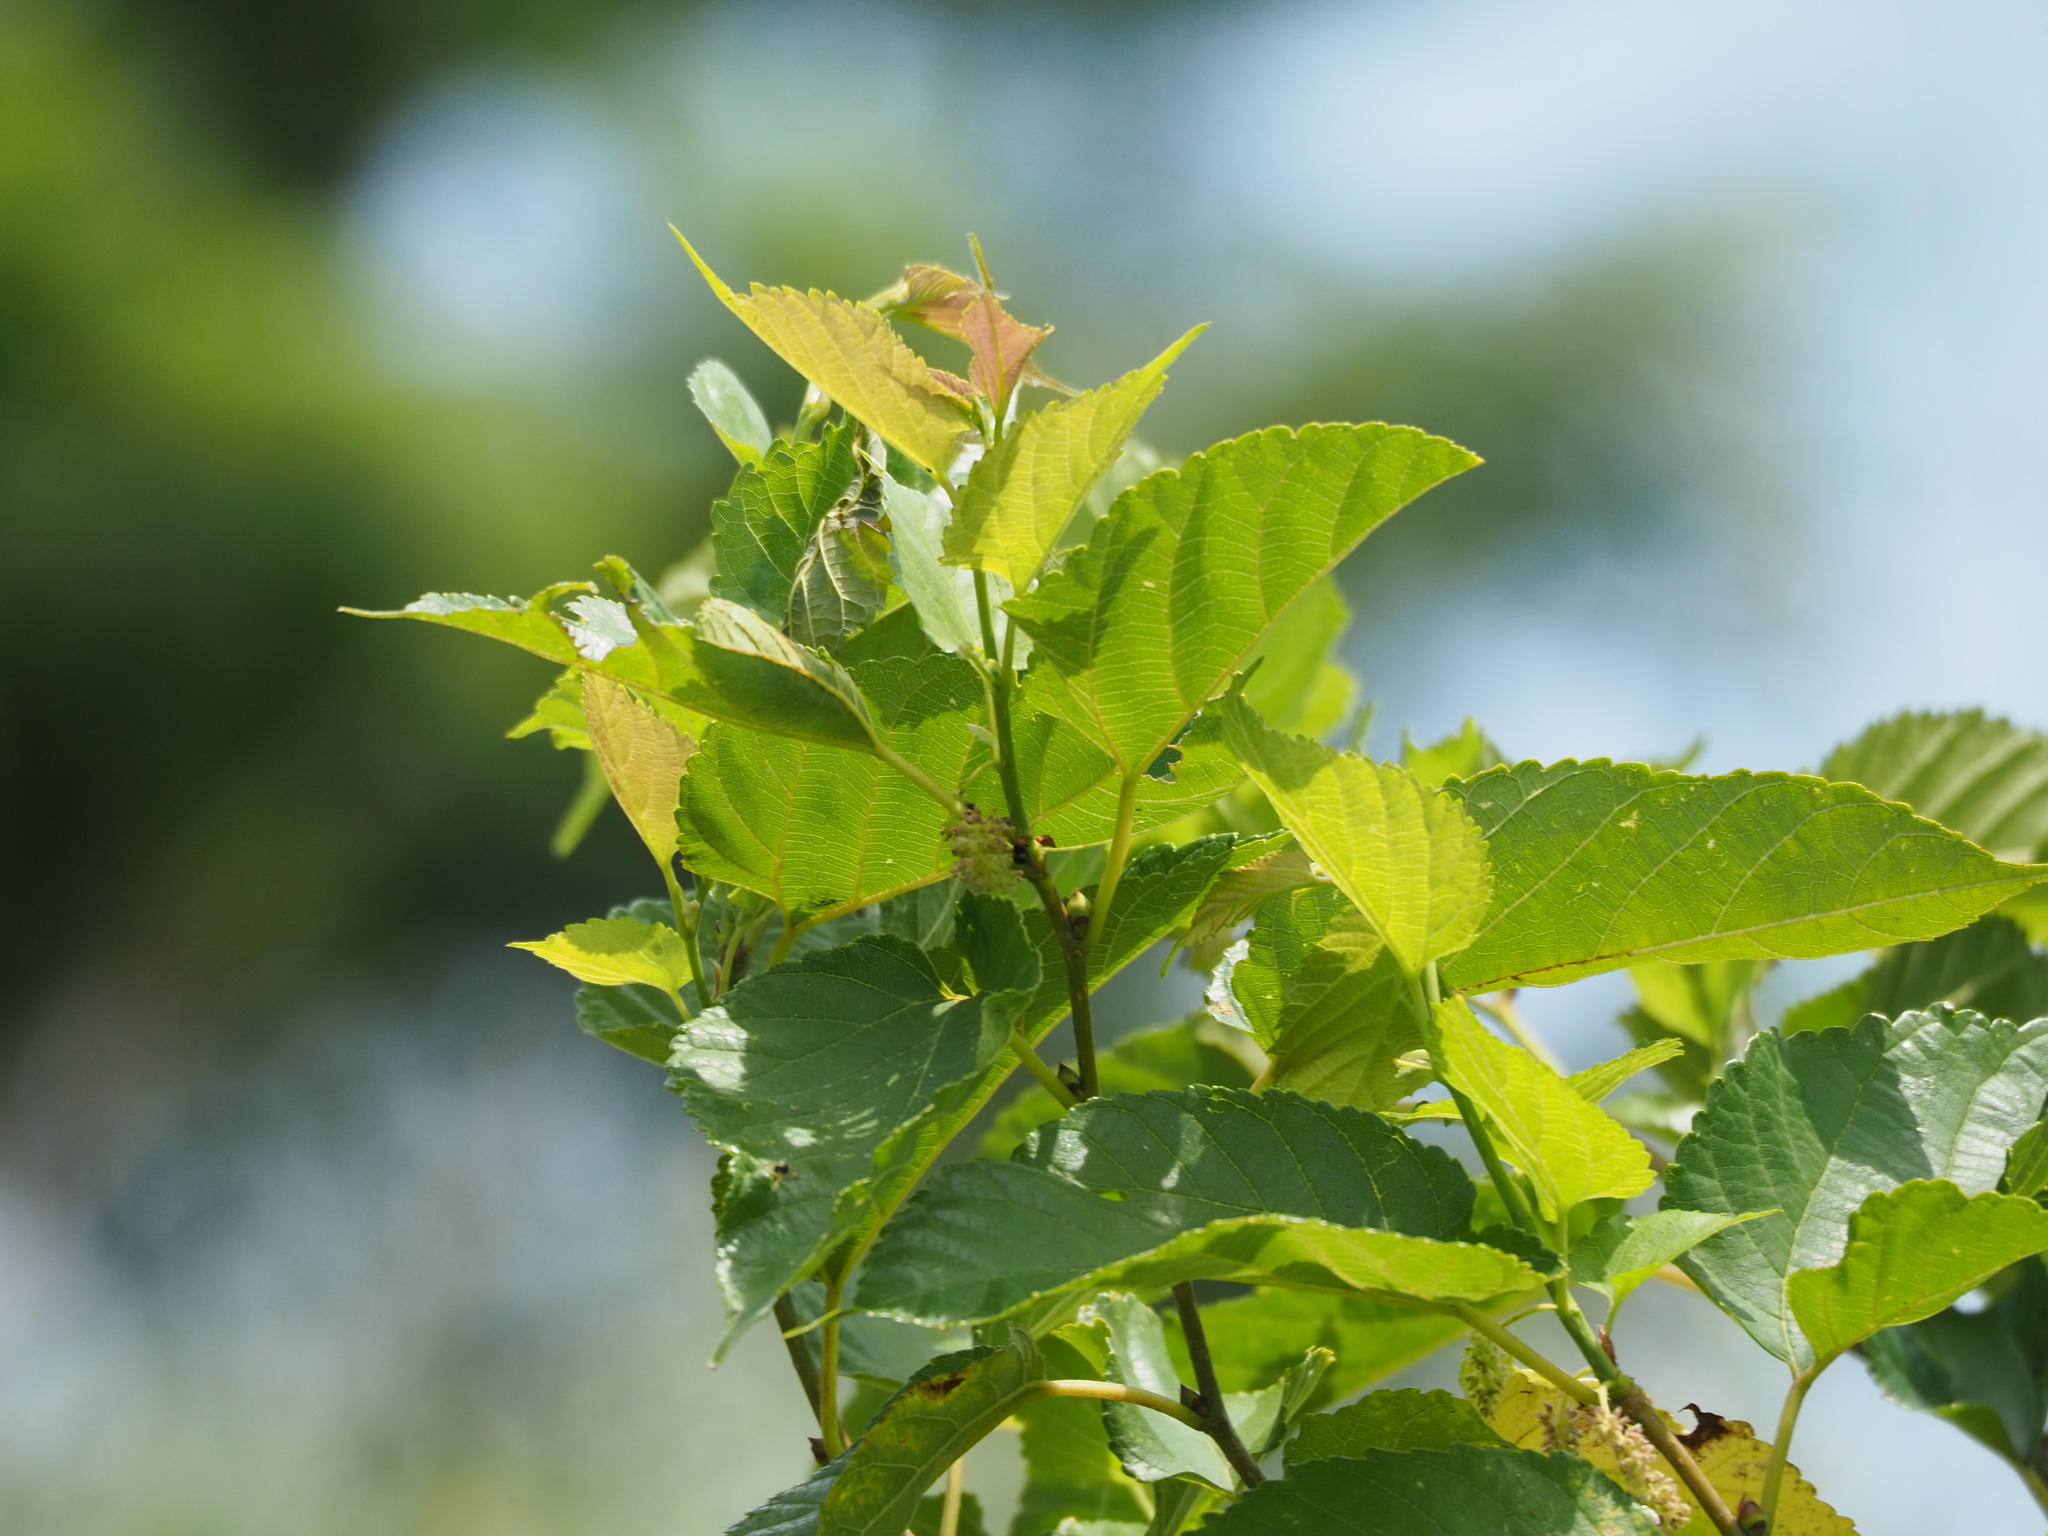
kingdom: Plantae
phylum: Tracheophyta
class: Magnoliopsida
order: Rosales
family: Moraceae
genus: Morus
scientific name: Morus indica
